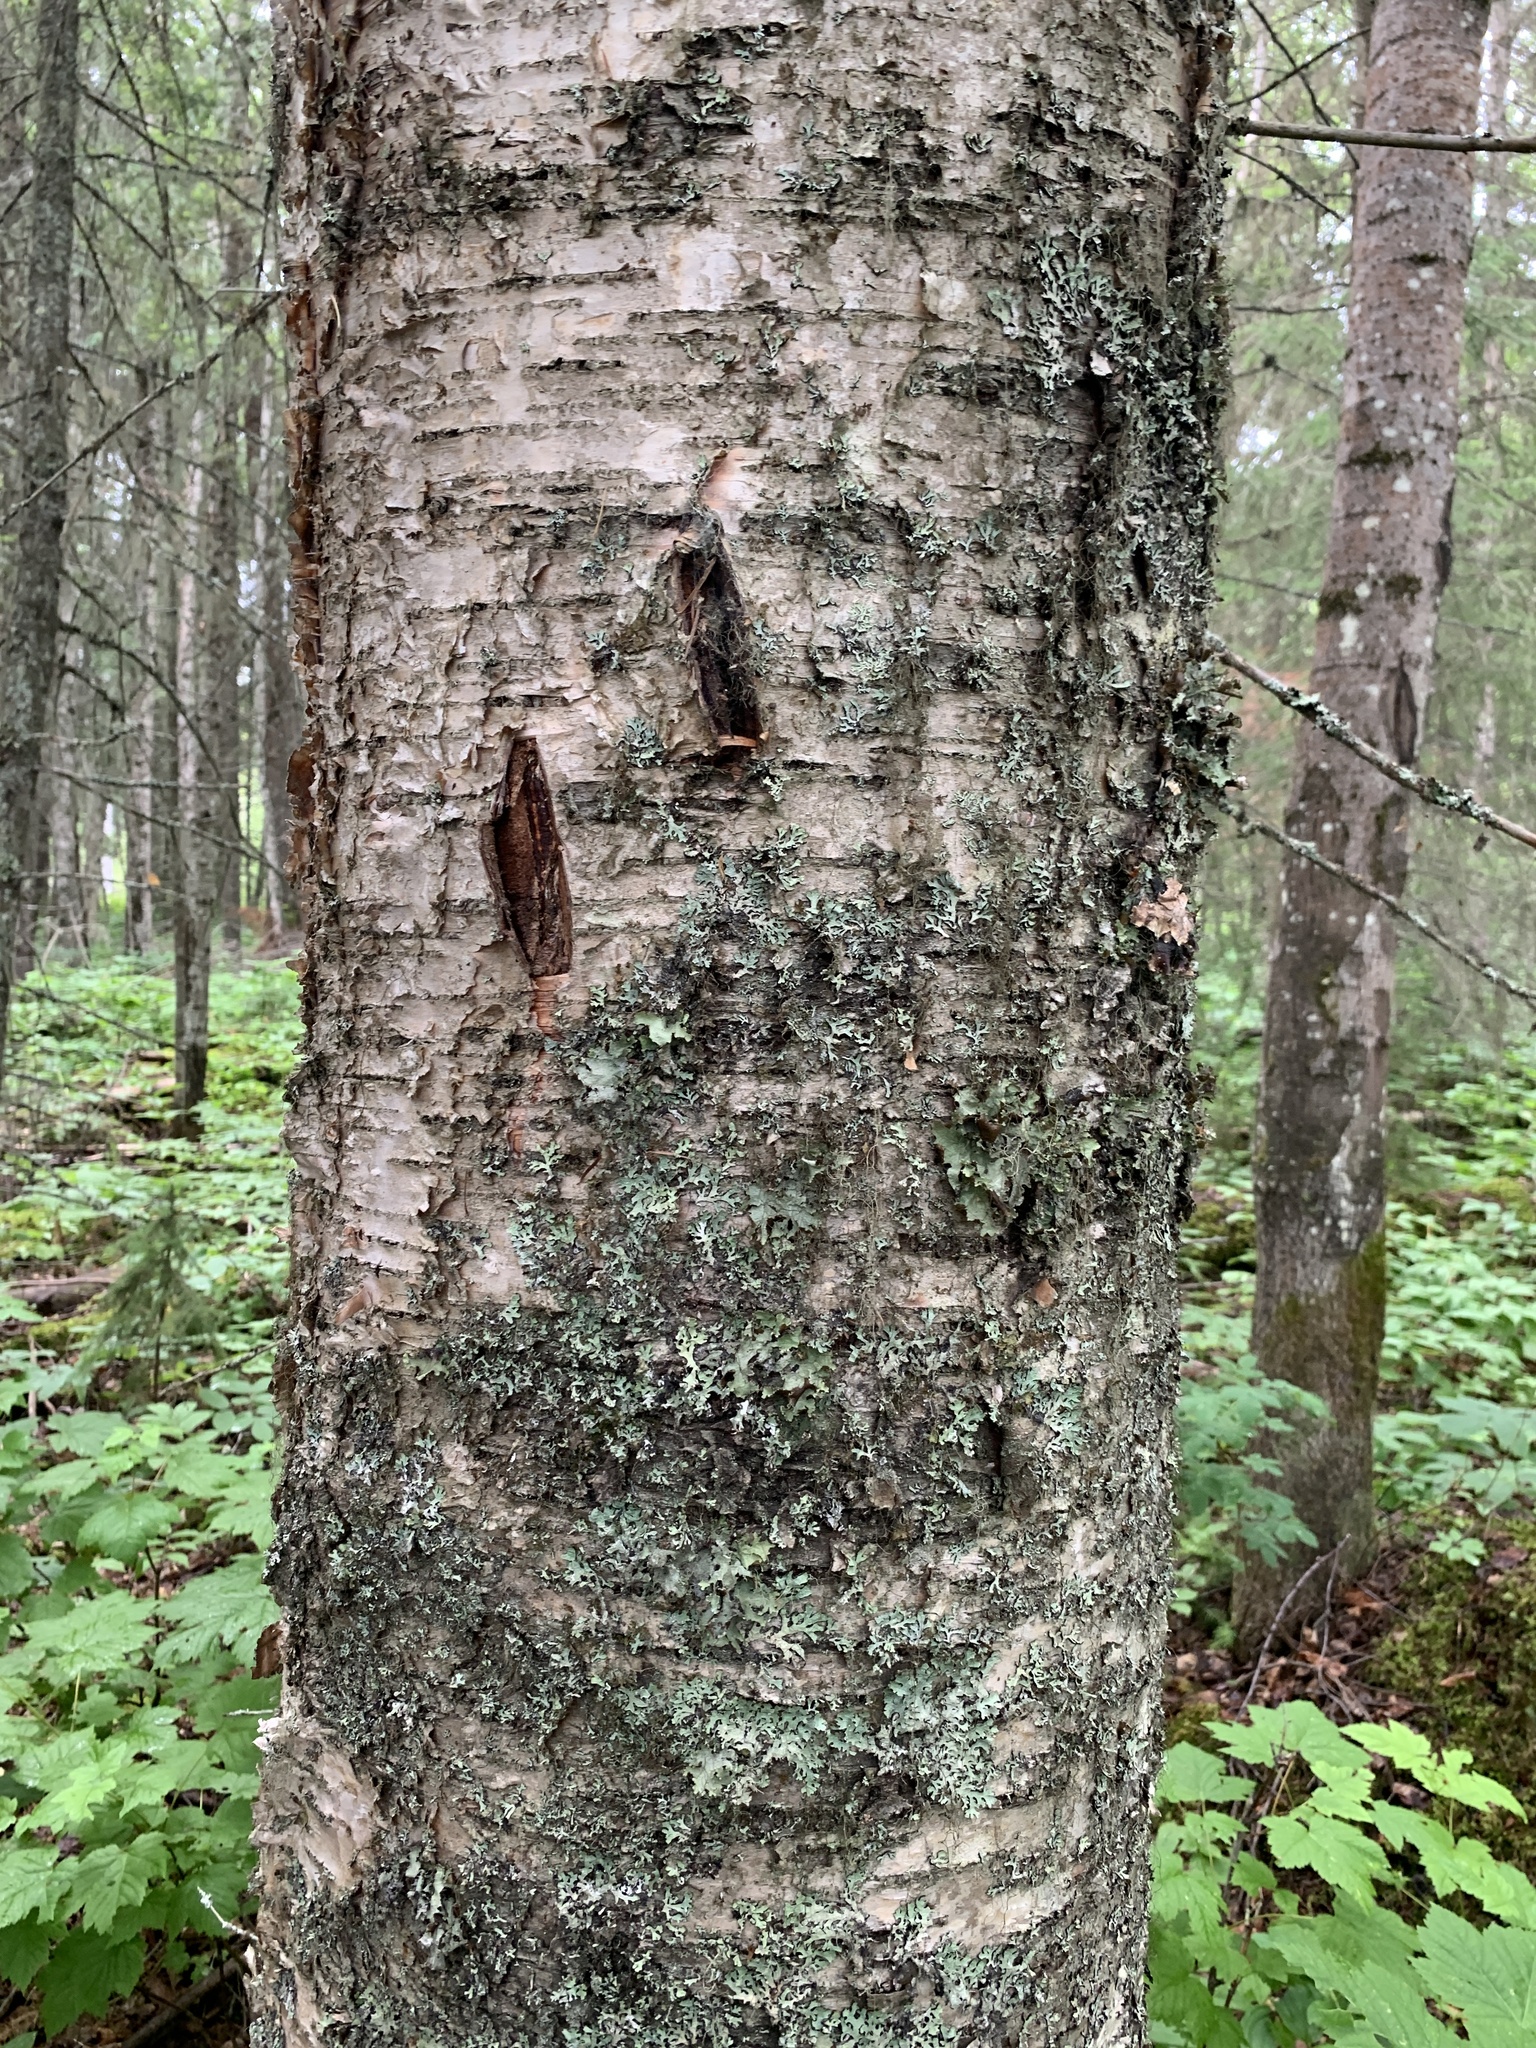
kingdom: Plantae
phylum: Tracheophyta
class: Magnoliopsida
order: Fagales
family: Betulaceae
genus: Betula
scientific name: Betula papyrifera
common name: Paper birch
